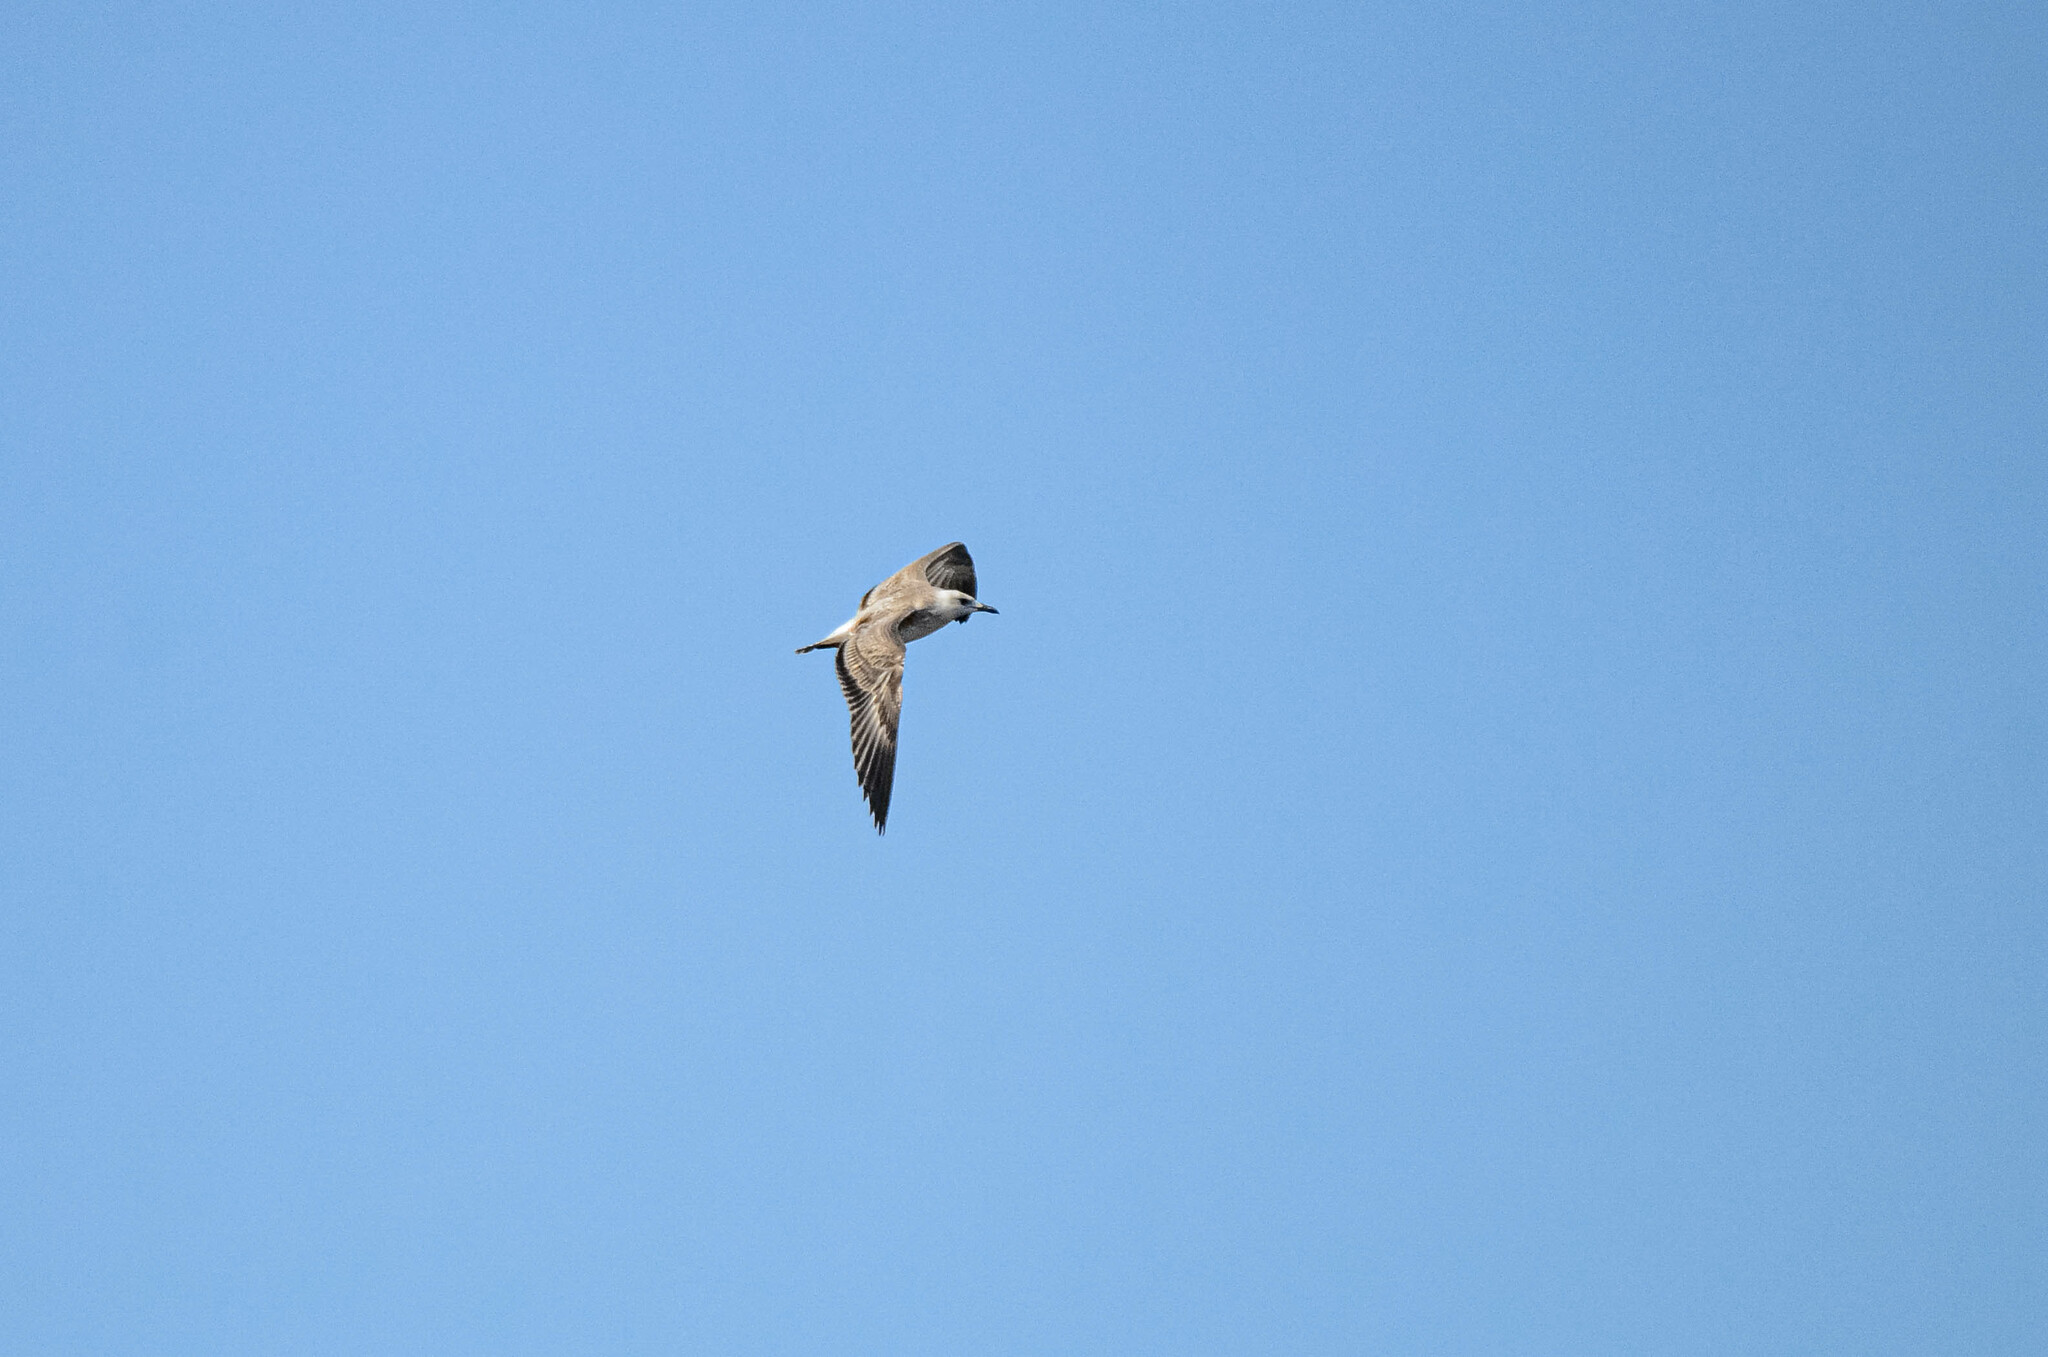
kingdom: Animalia
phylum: Chordata
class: Aves
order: Charadriiformes
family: Laridae
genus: Larus
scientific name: Larus fuscus
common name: Lesser black-backed gull
